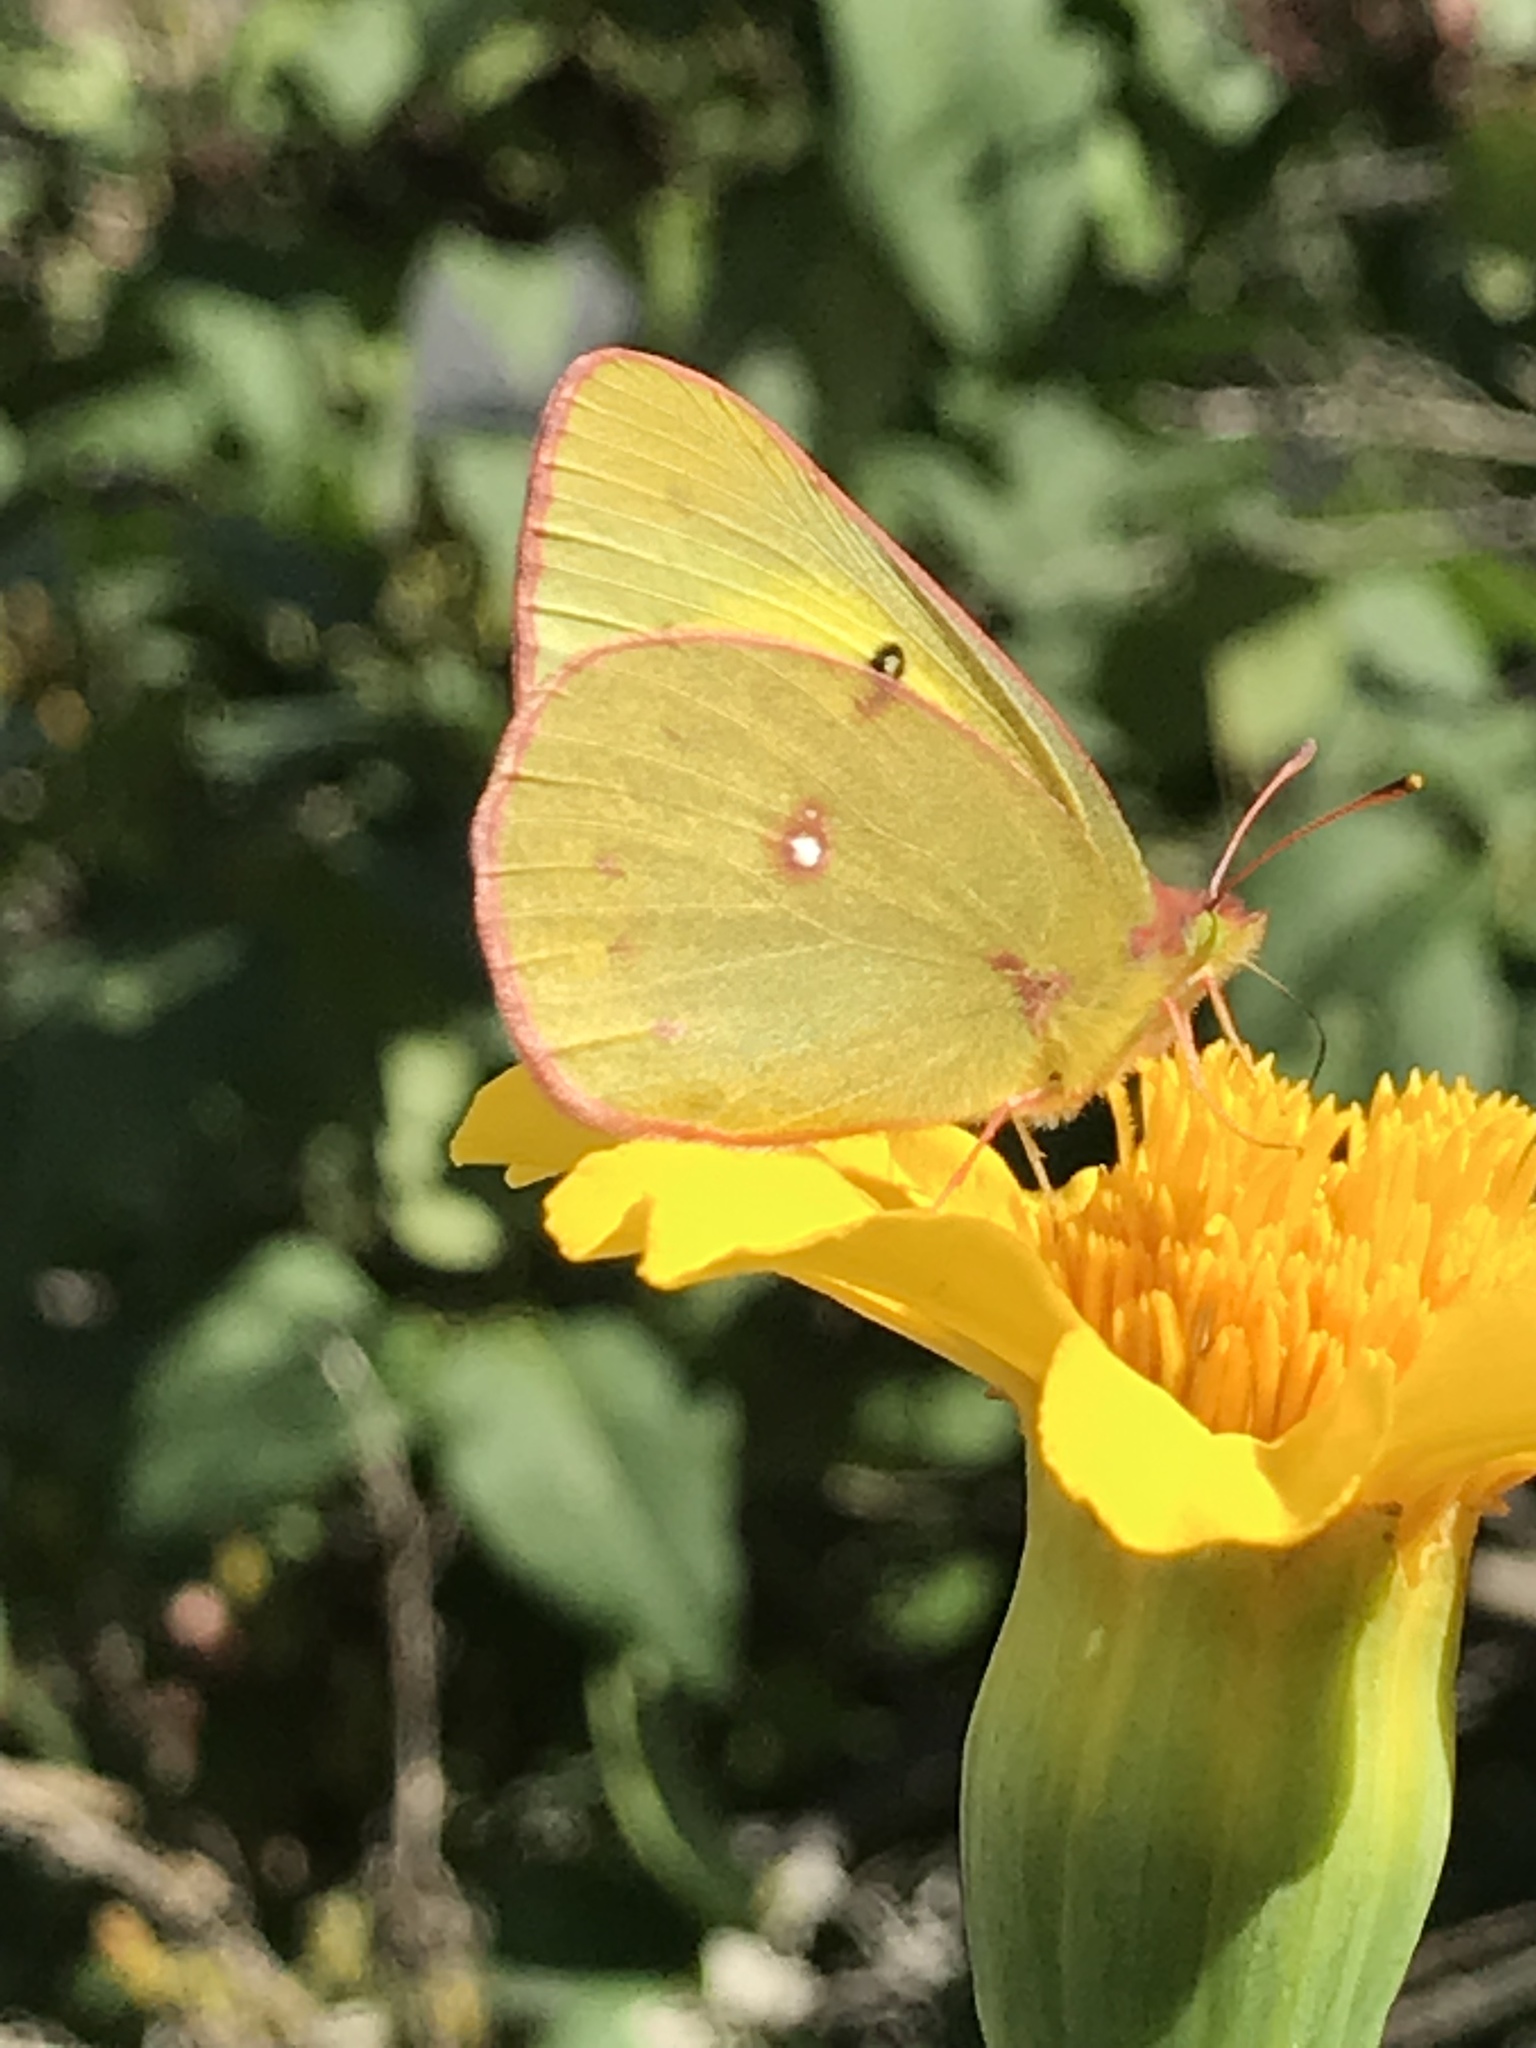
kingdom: Animalia
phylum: Arthropoda
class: Insecta
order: Lepidoptera
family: Pieridae
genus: Colias
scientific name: Colias eurytheme
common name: Alfalfa butterfly
